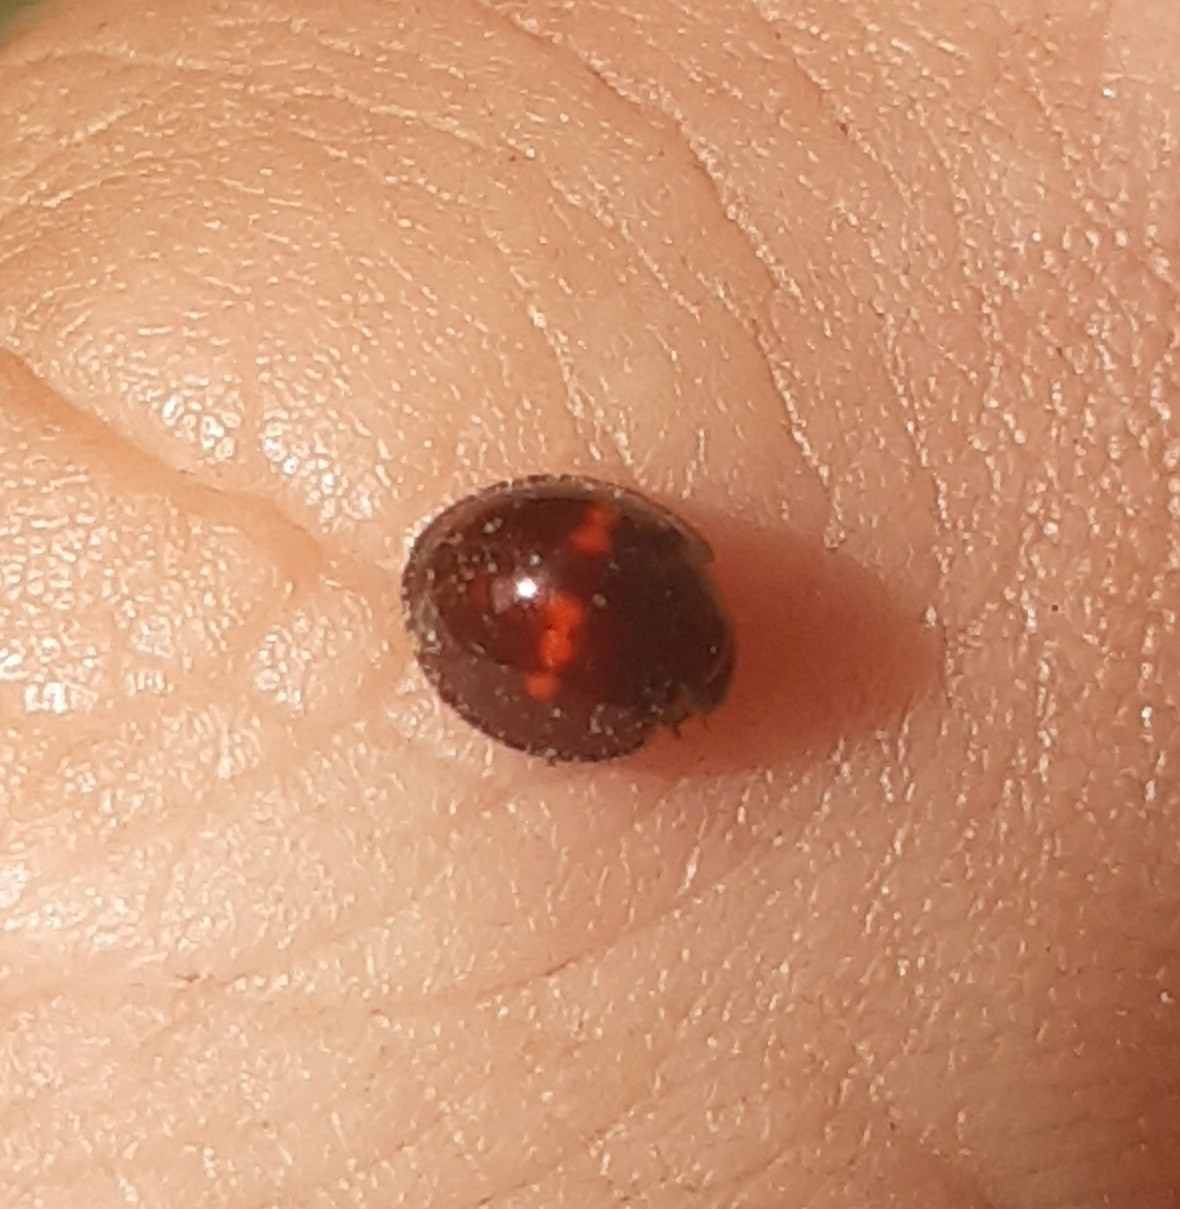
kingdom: Animalia
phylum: Arthropoda
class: Insecta
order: Coleoptera
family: Coccinellidae
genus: Chilocorus
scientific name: Chilocorus bipustulatus
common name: Heather ladybird
